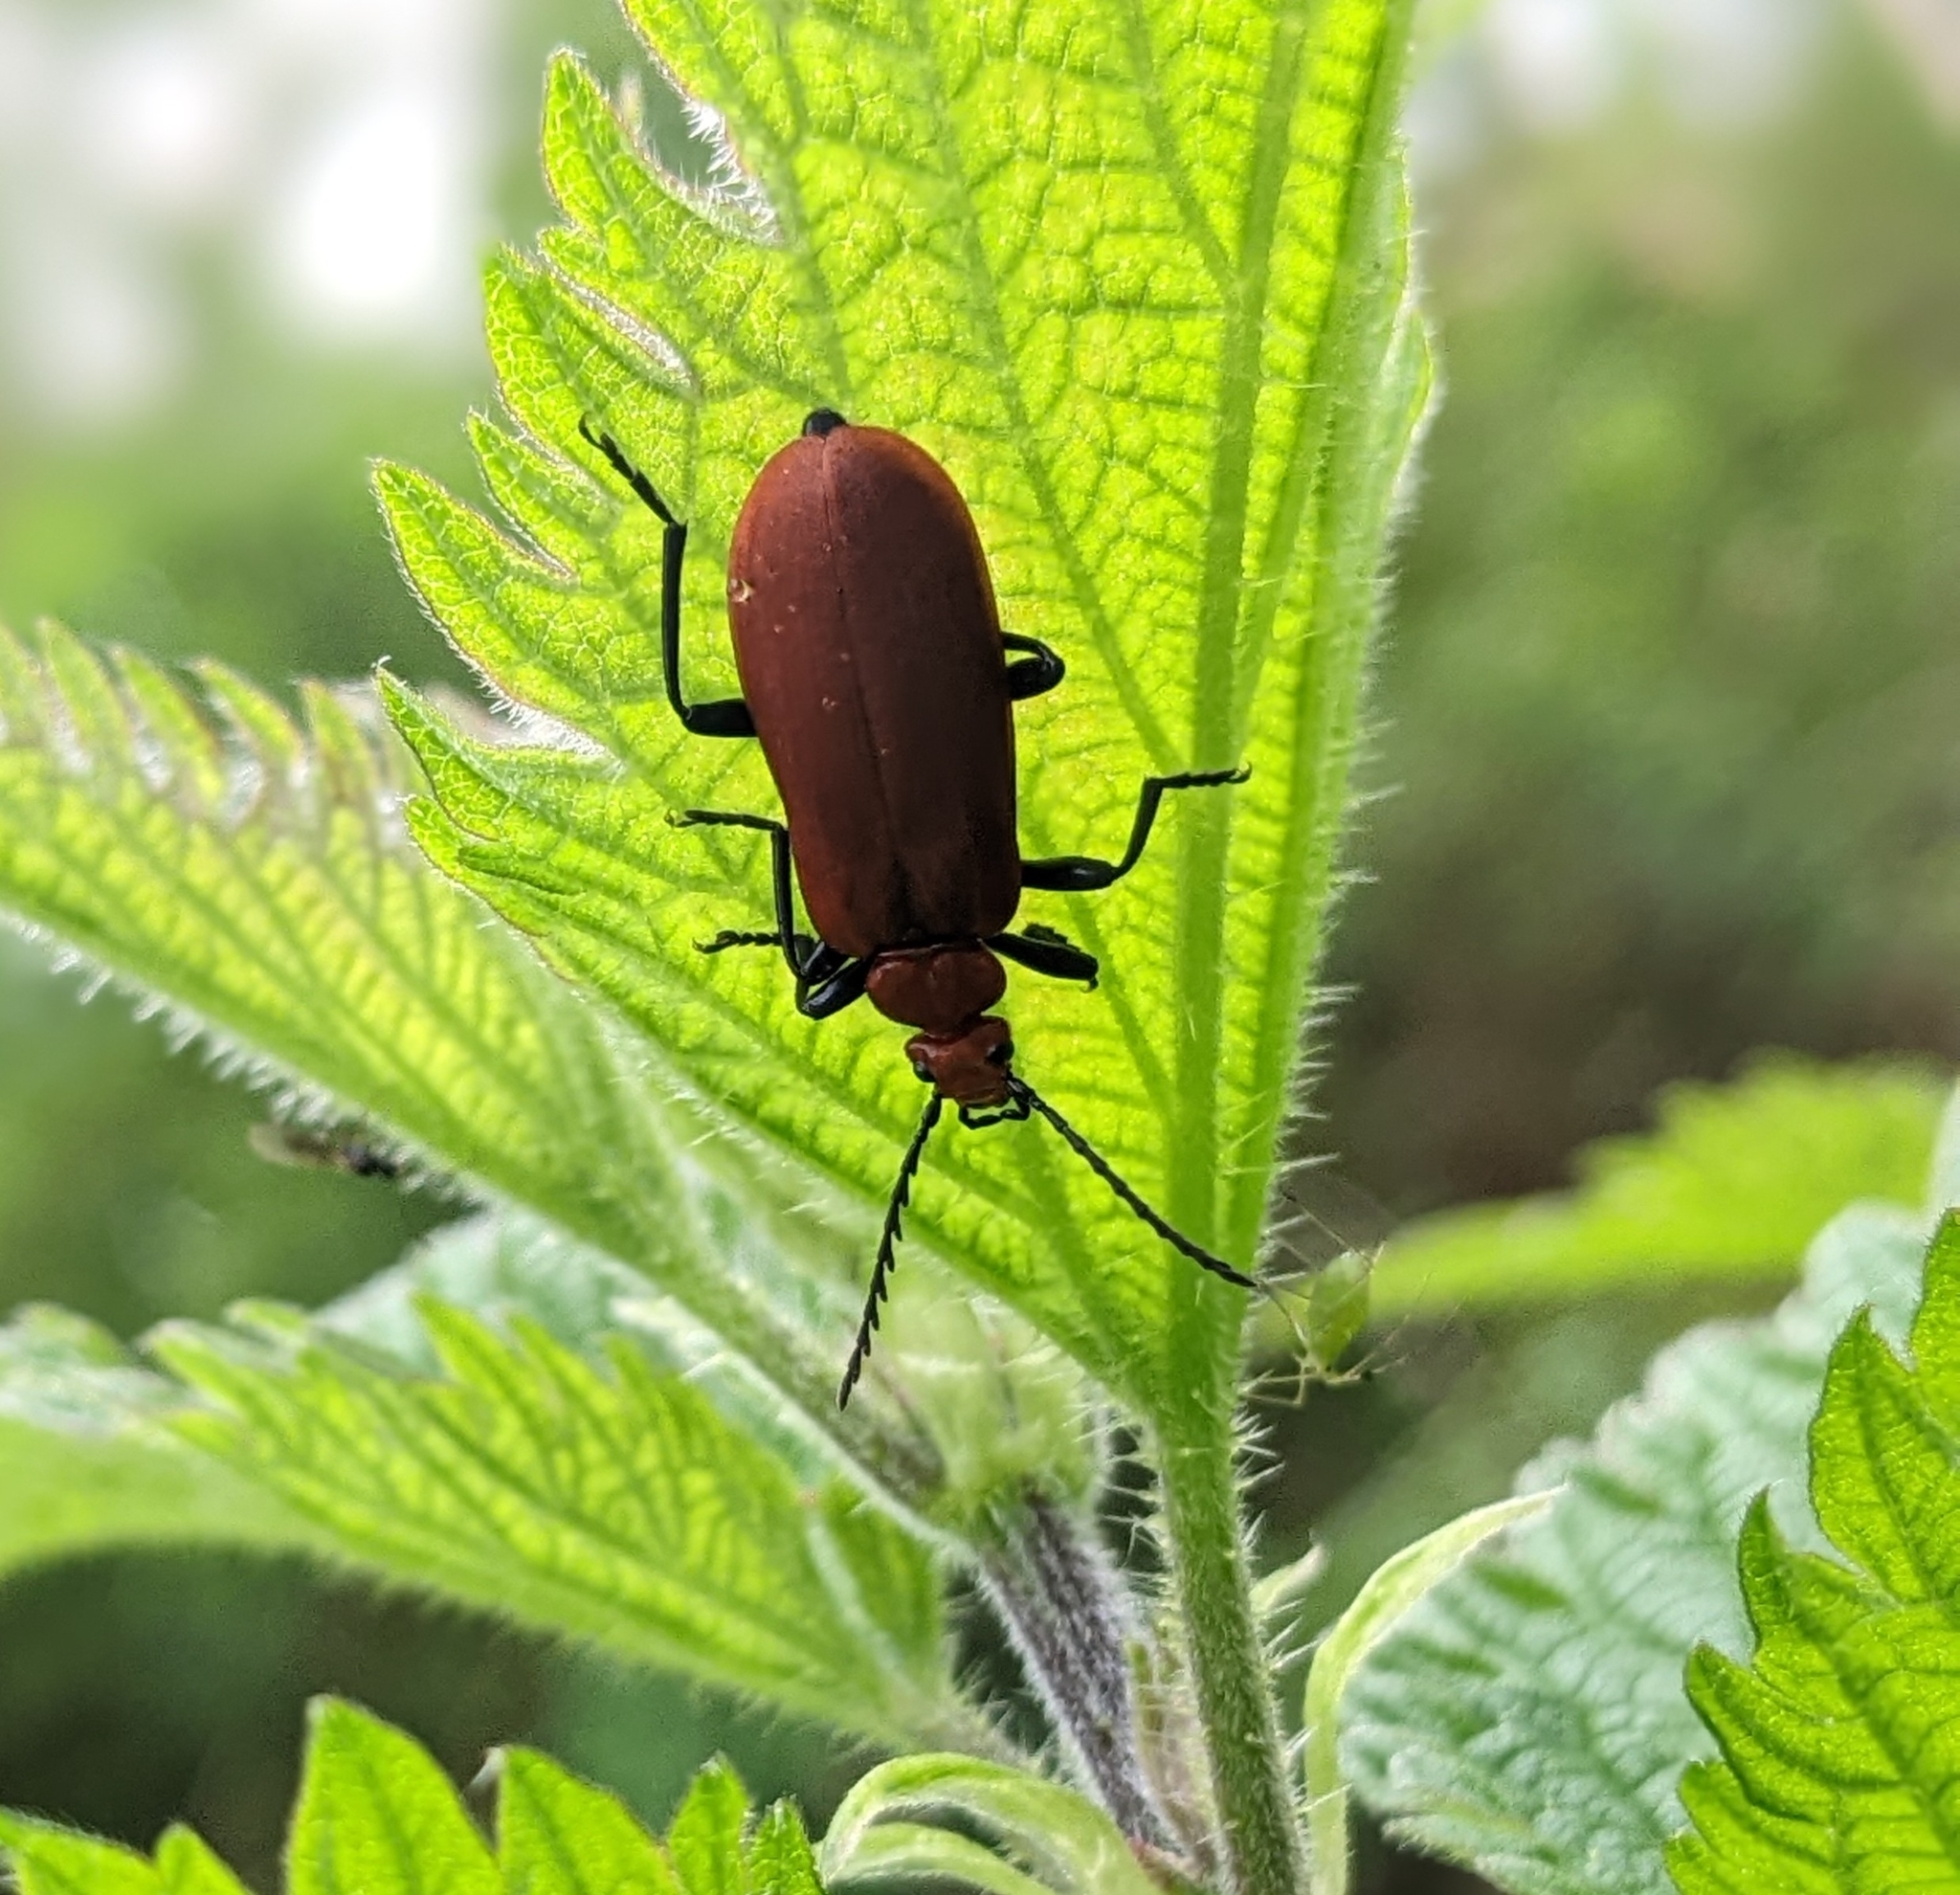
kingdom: Animalia
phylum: Arthropoda
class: Insecta
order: Coleoptera
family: Pyrochroidae
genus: Pyrochroa
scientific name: Pyrochroa serraticornis
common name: Red-headed cardinal beetle
